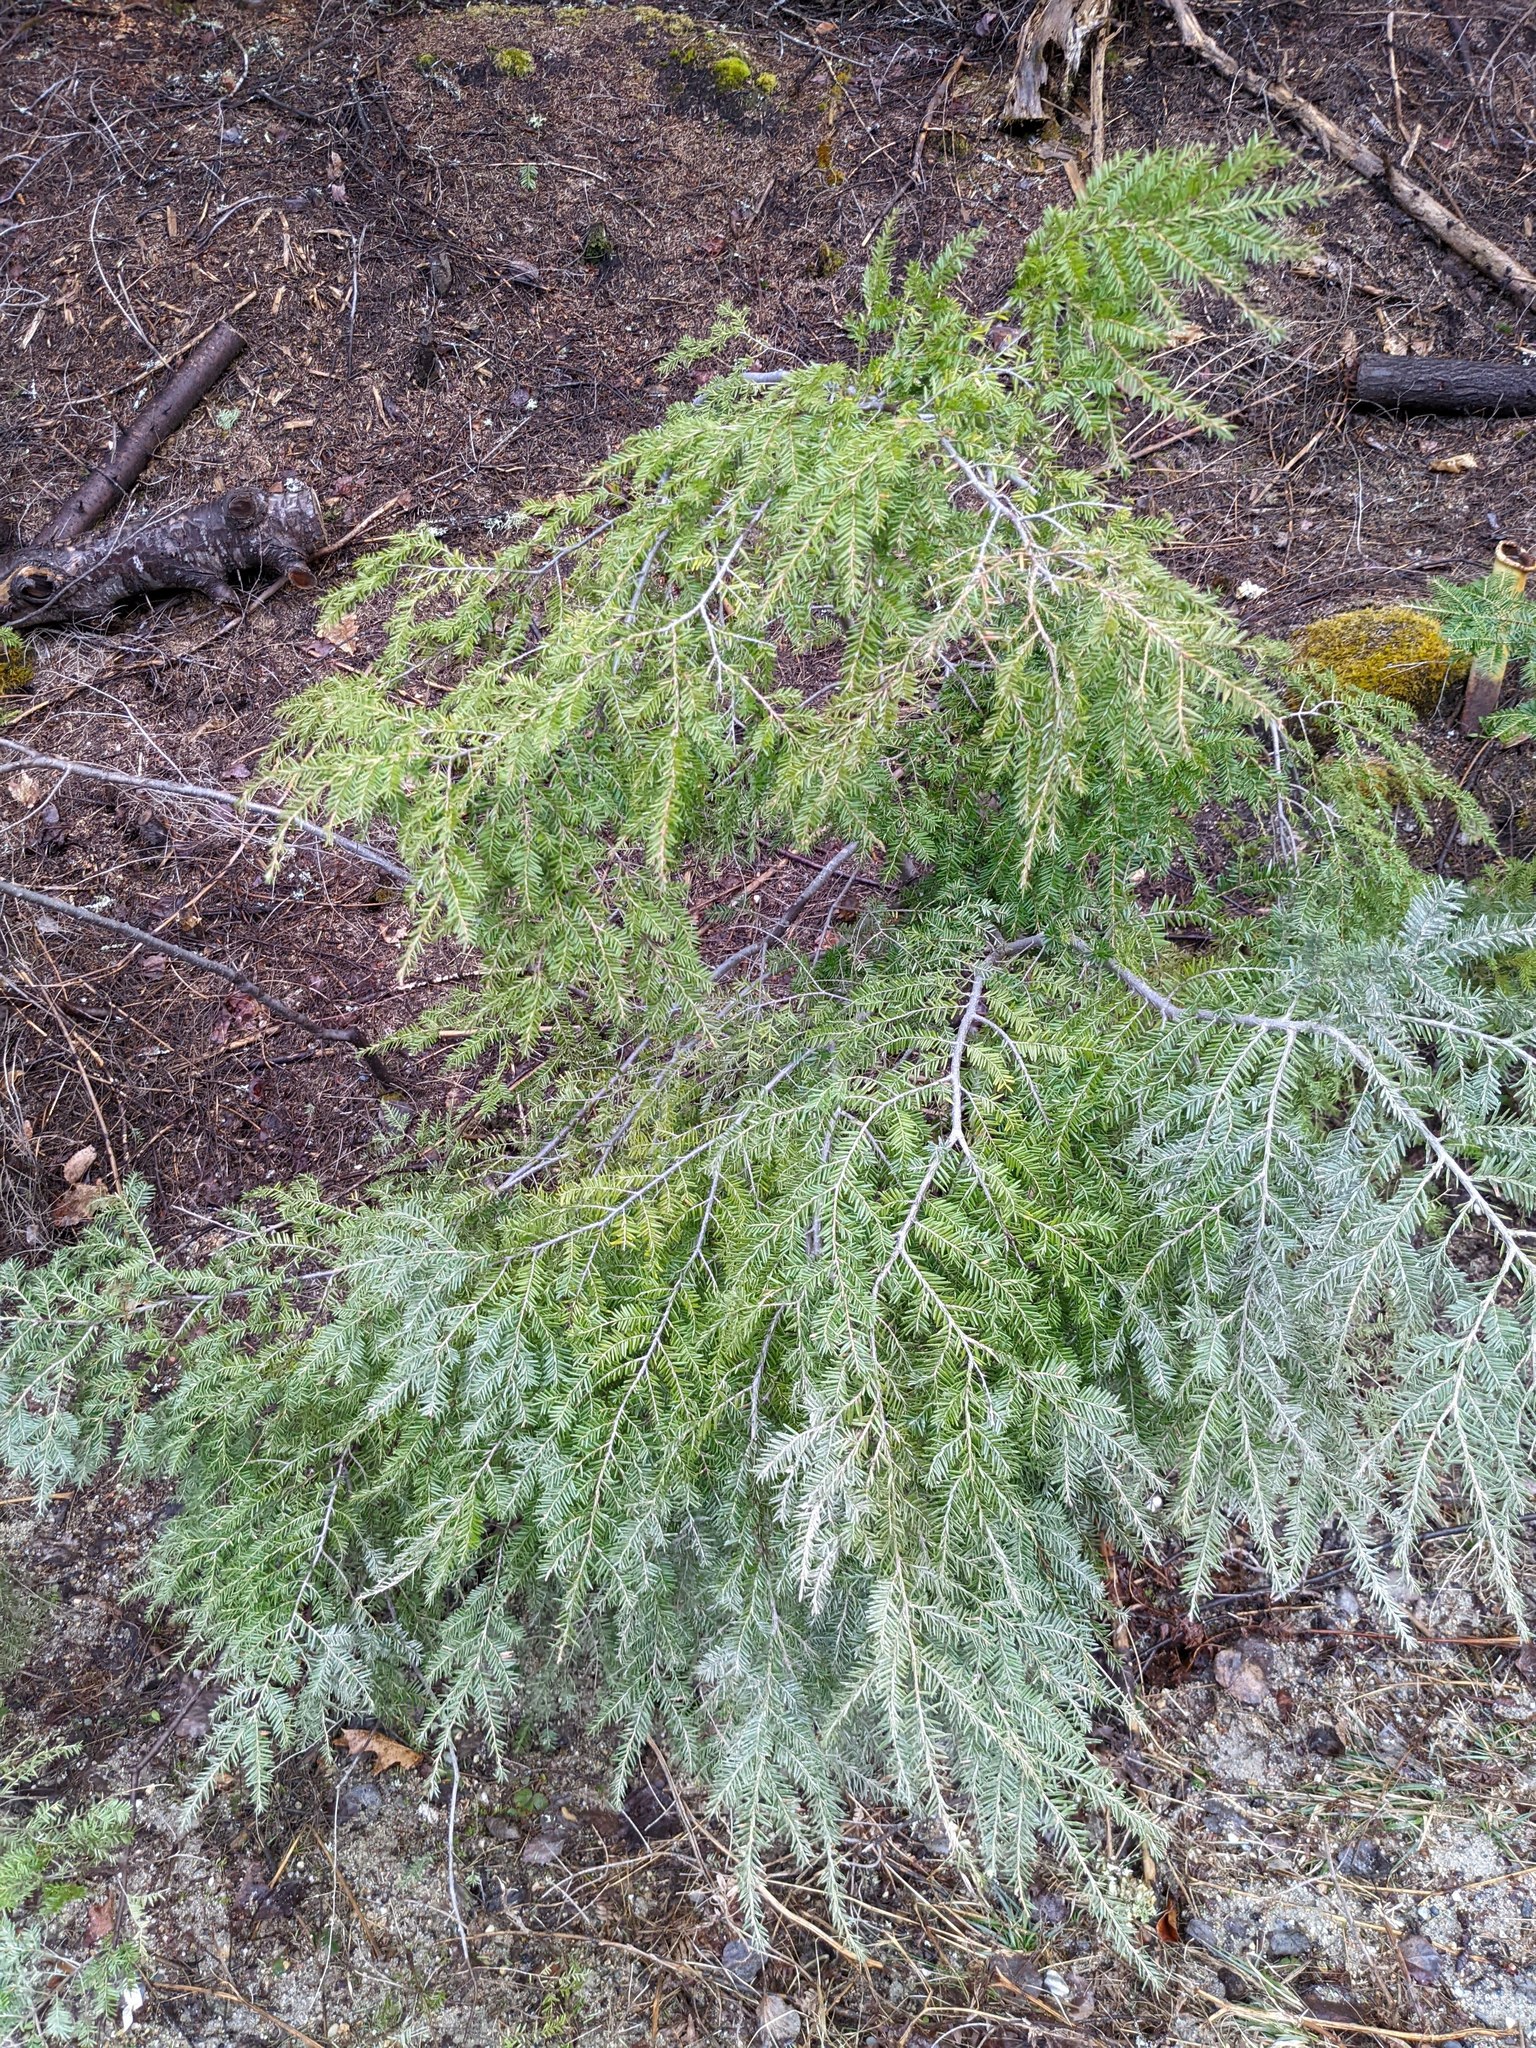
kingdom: Plantae
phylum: Tracheophyta
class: Pinopsida
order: Pinales
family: Pinaceae
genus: Tsuga
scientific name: Tsuga canadensis
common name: Eastern hemlock
